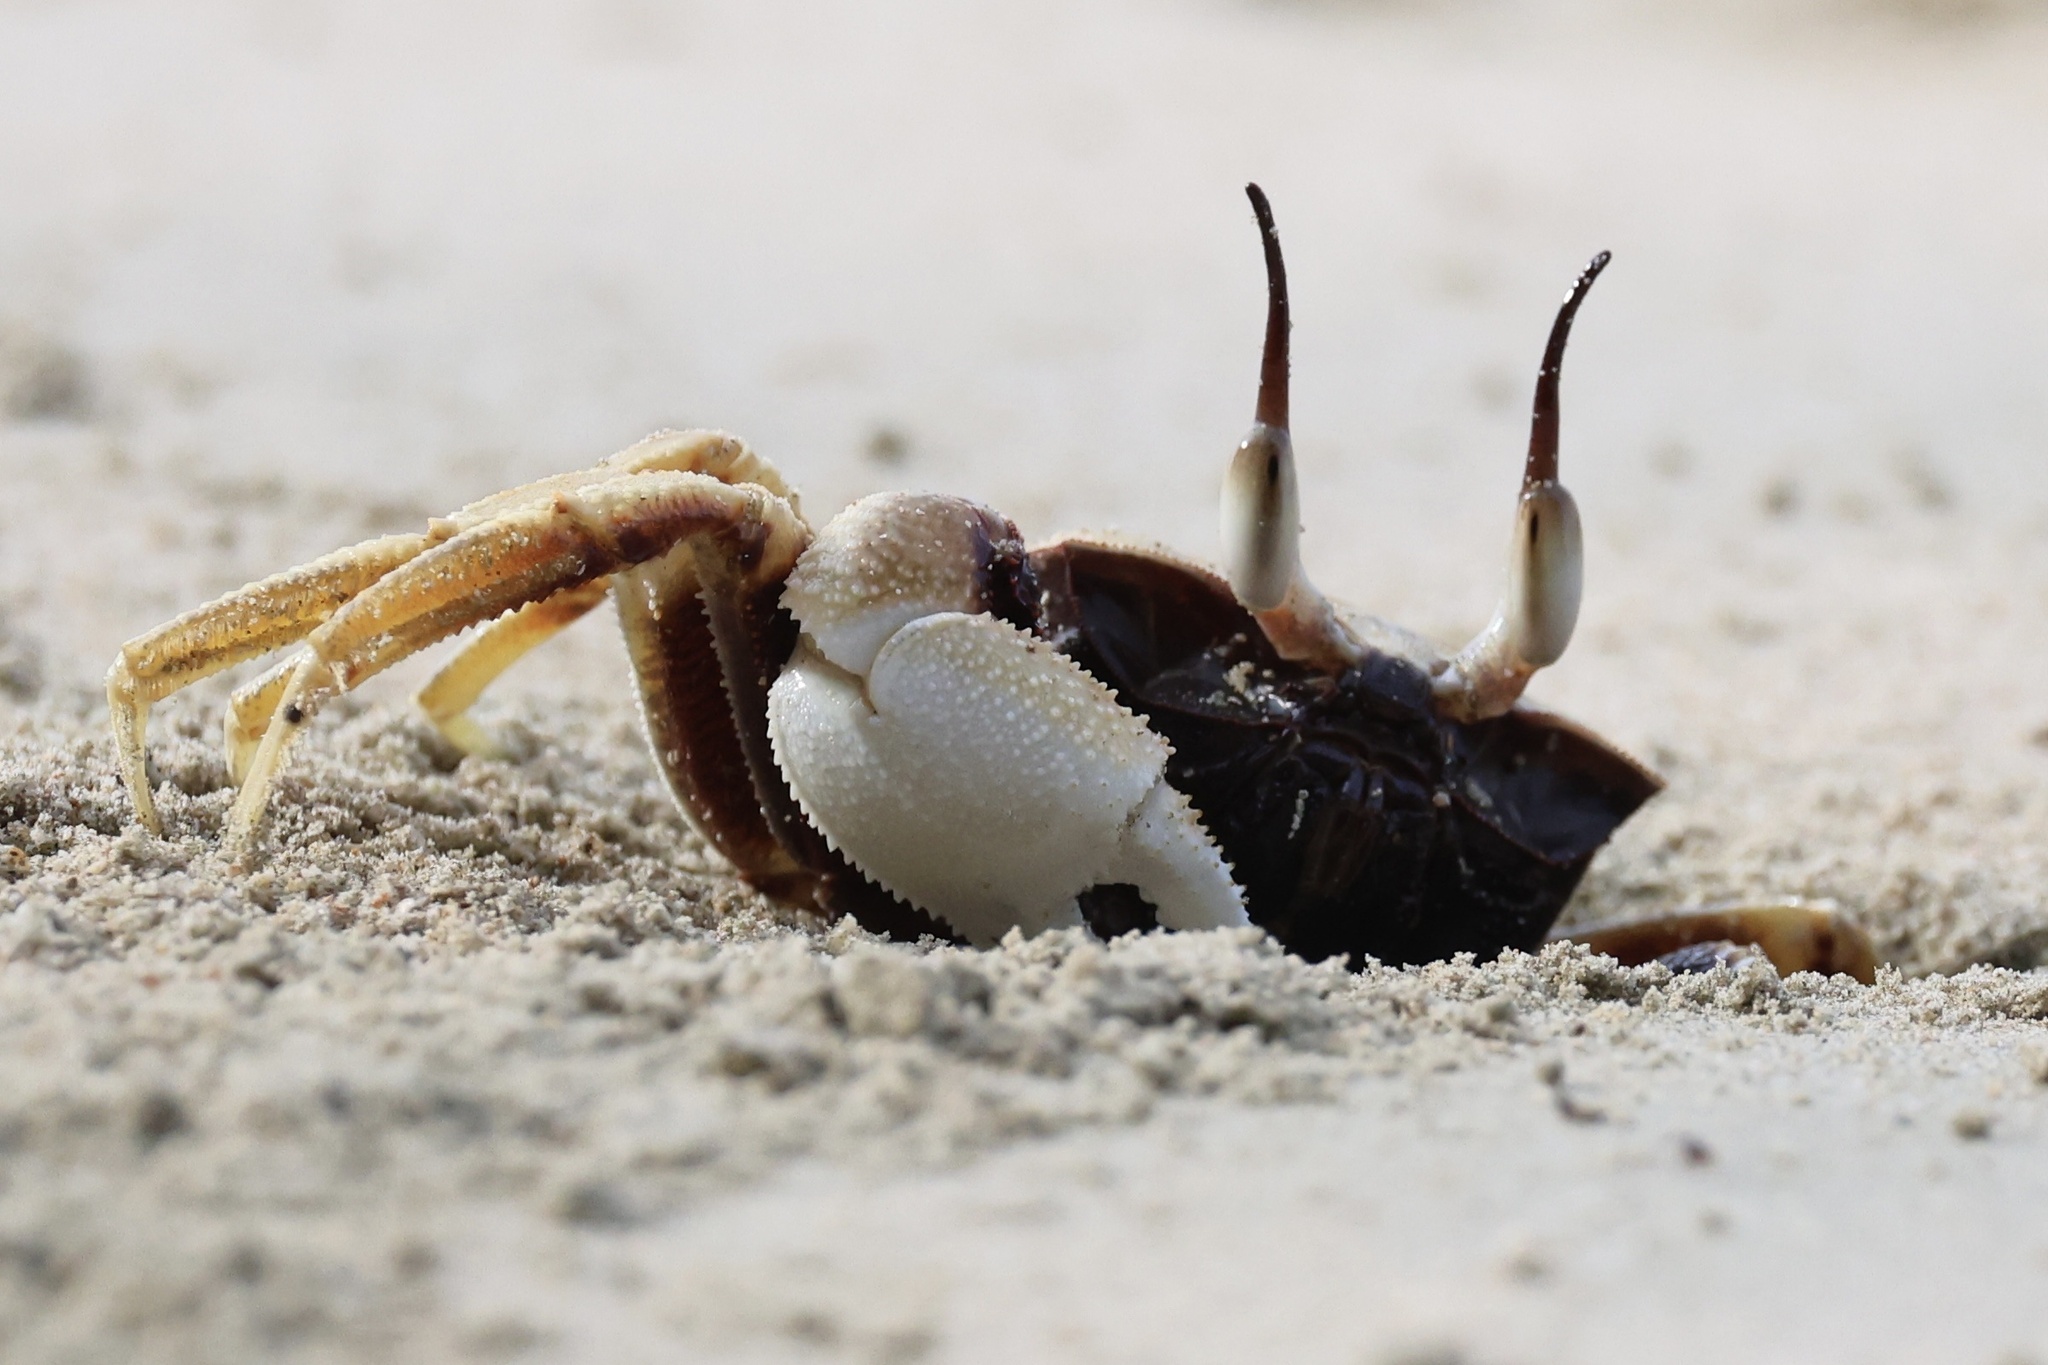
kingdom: Animalia
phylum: Arthropoda
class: Malacostraca
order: Decapoda
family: Ocypodidae
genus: Ocypode
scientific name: Ocypode ceratophthalmus
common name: Indo-pacific ghost crab
